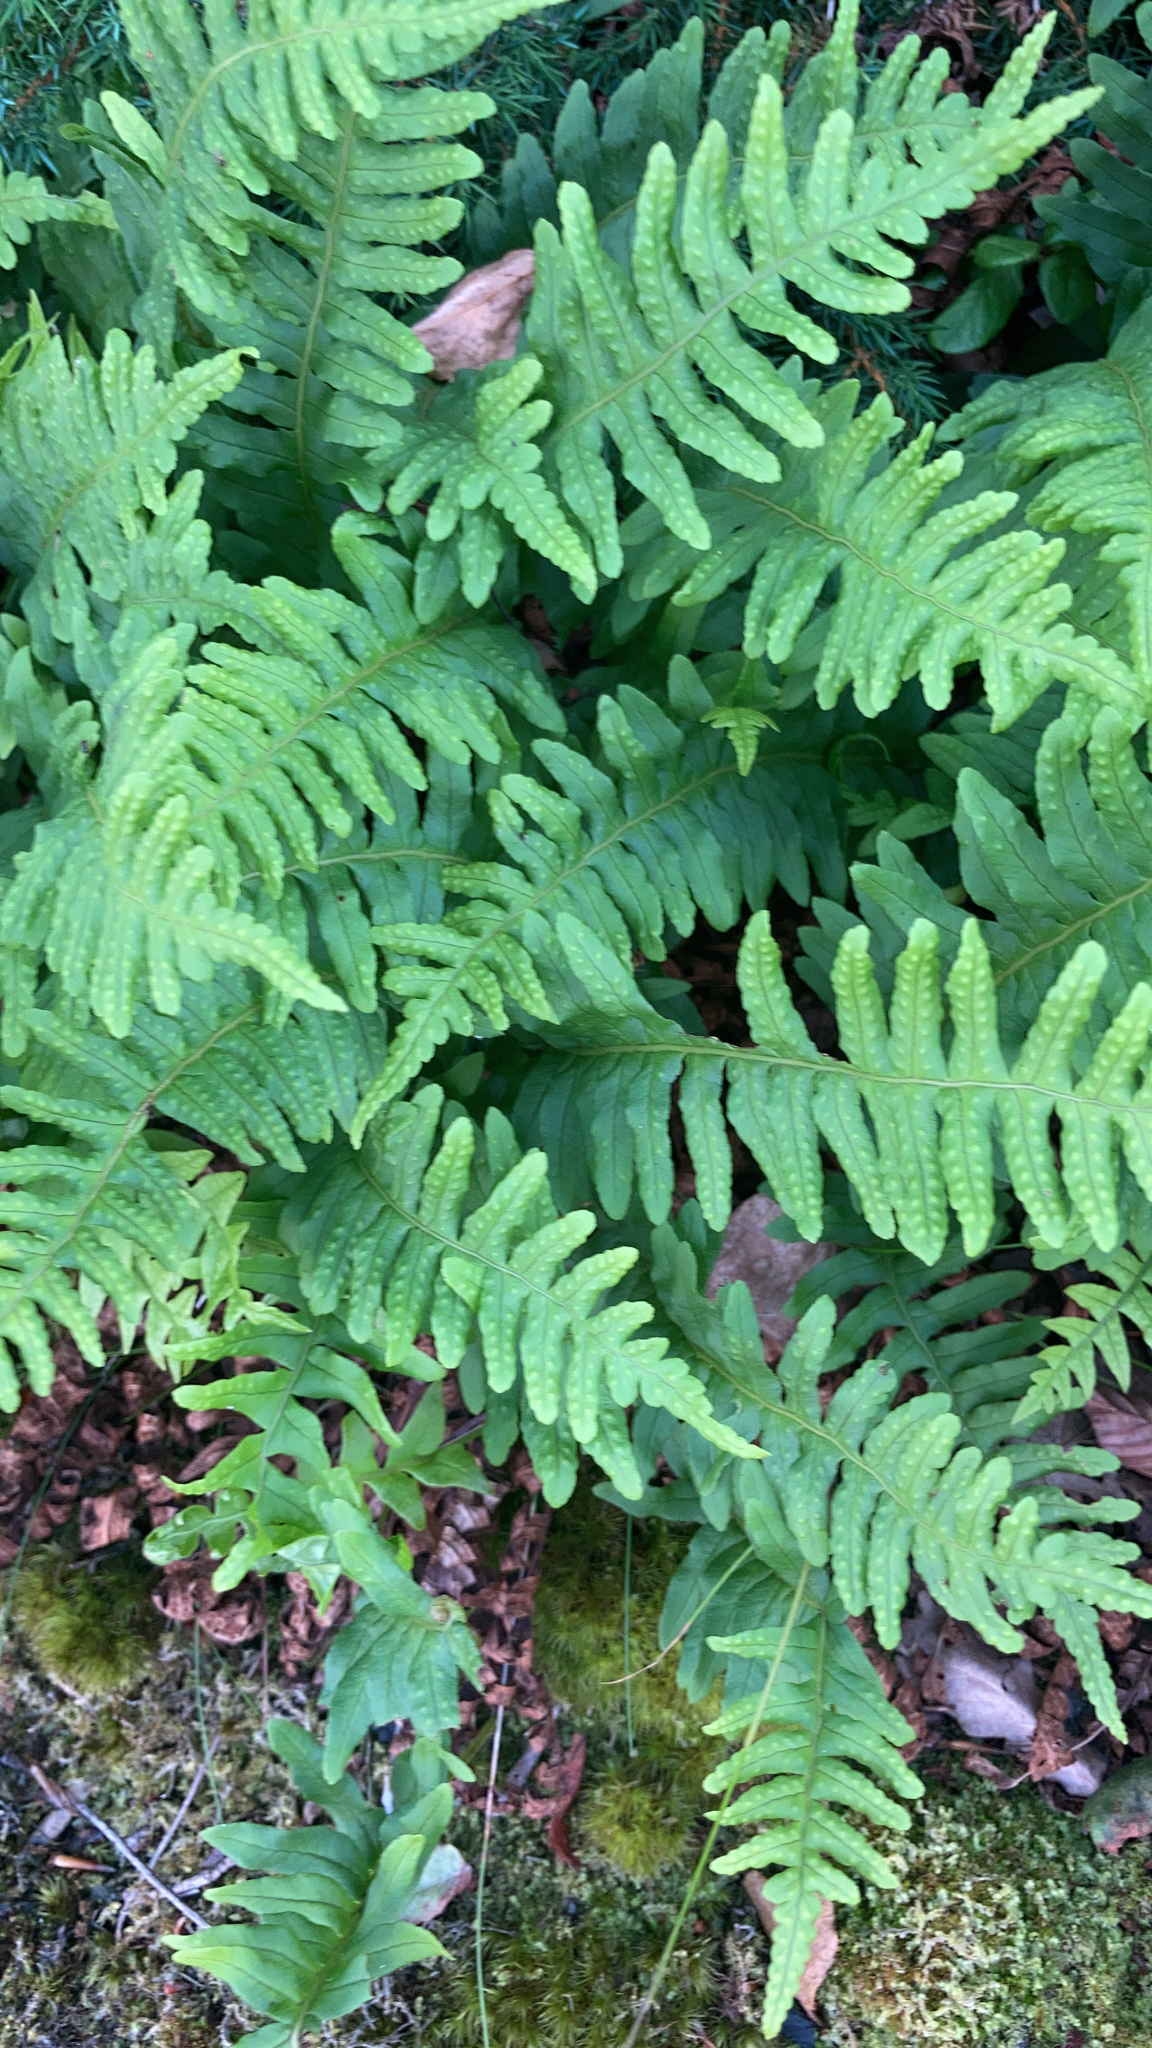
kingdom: Plantae
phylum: Tracheophyta
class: Polypodiopsida
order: Polypodiales
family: Polypodiaceae
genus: Polypodium
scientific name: Polypodium vulgare
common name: Common polypody
